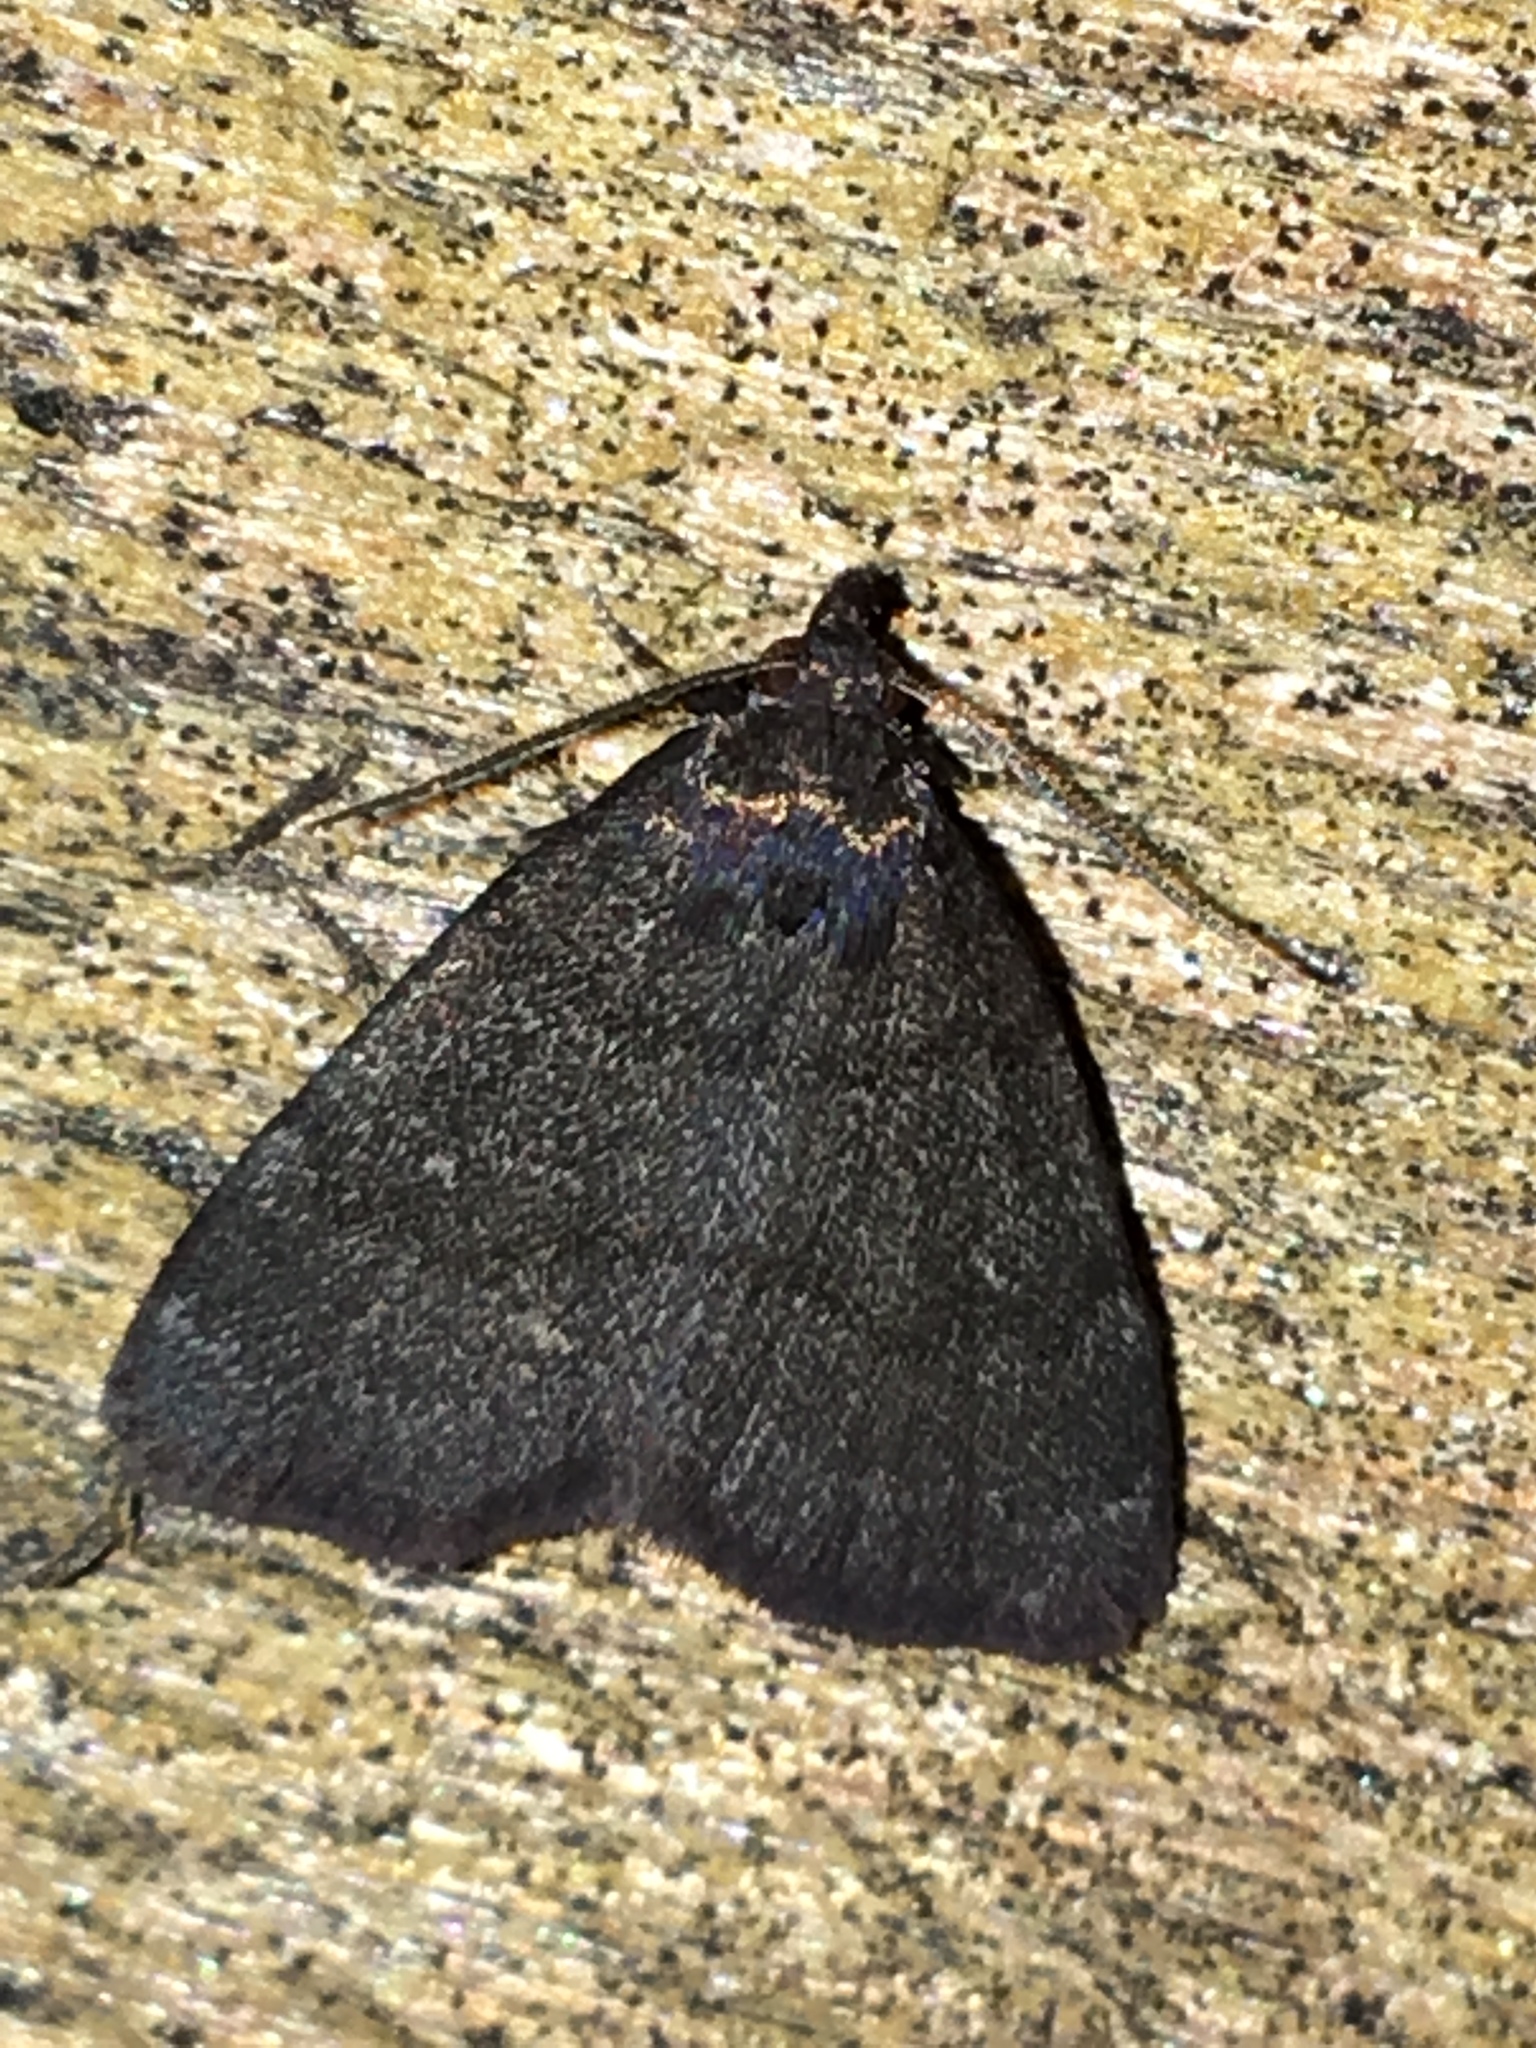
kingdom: Animalia
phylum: Arthropoda
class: Insecta
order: Lepidoptera
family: Erebidae
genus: Idia
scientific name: Idia rotundalis
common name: Rotund idia moth
